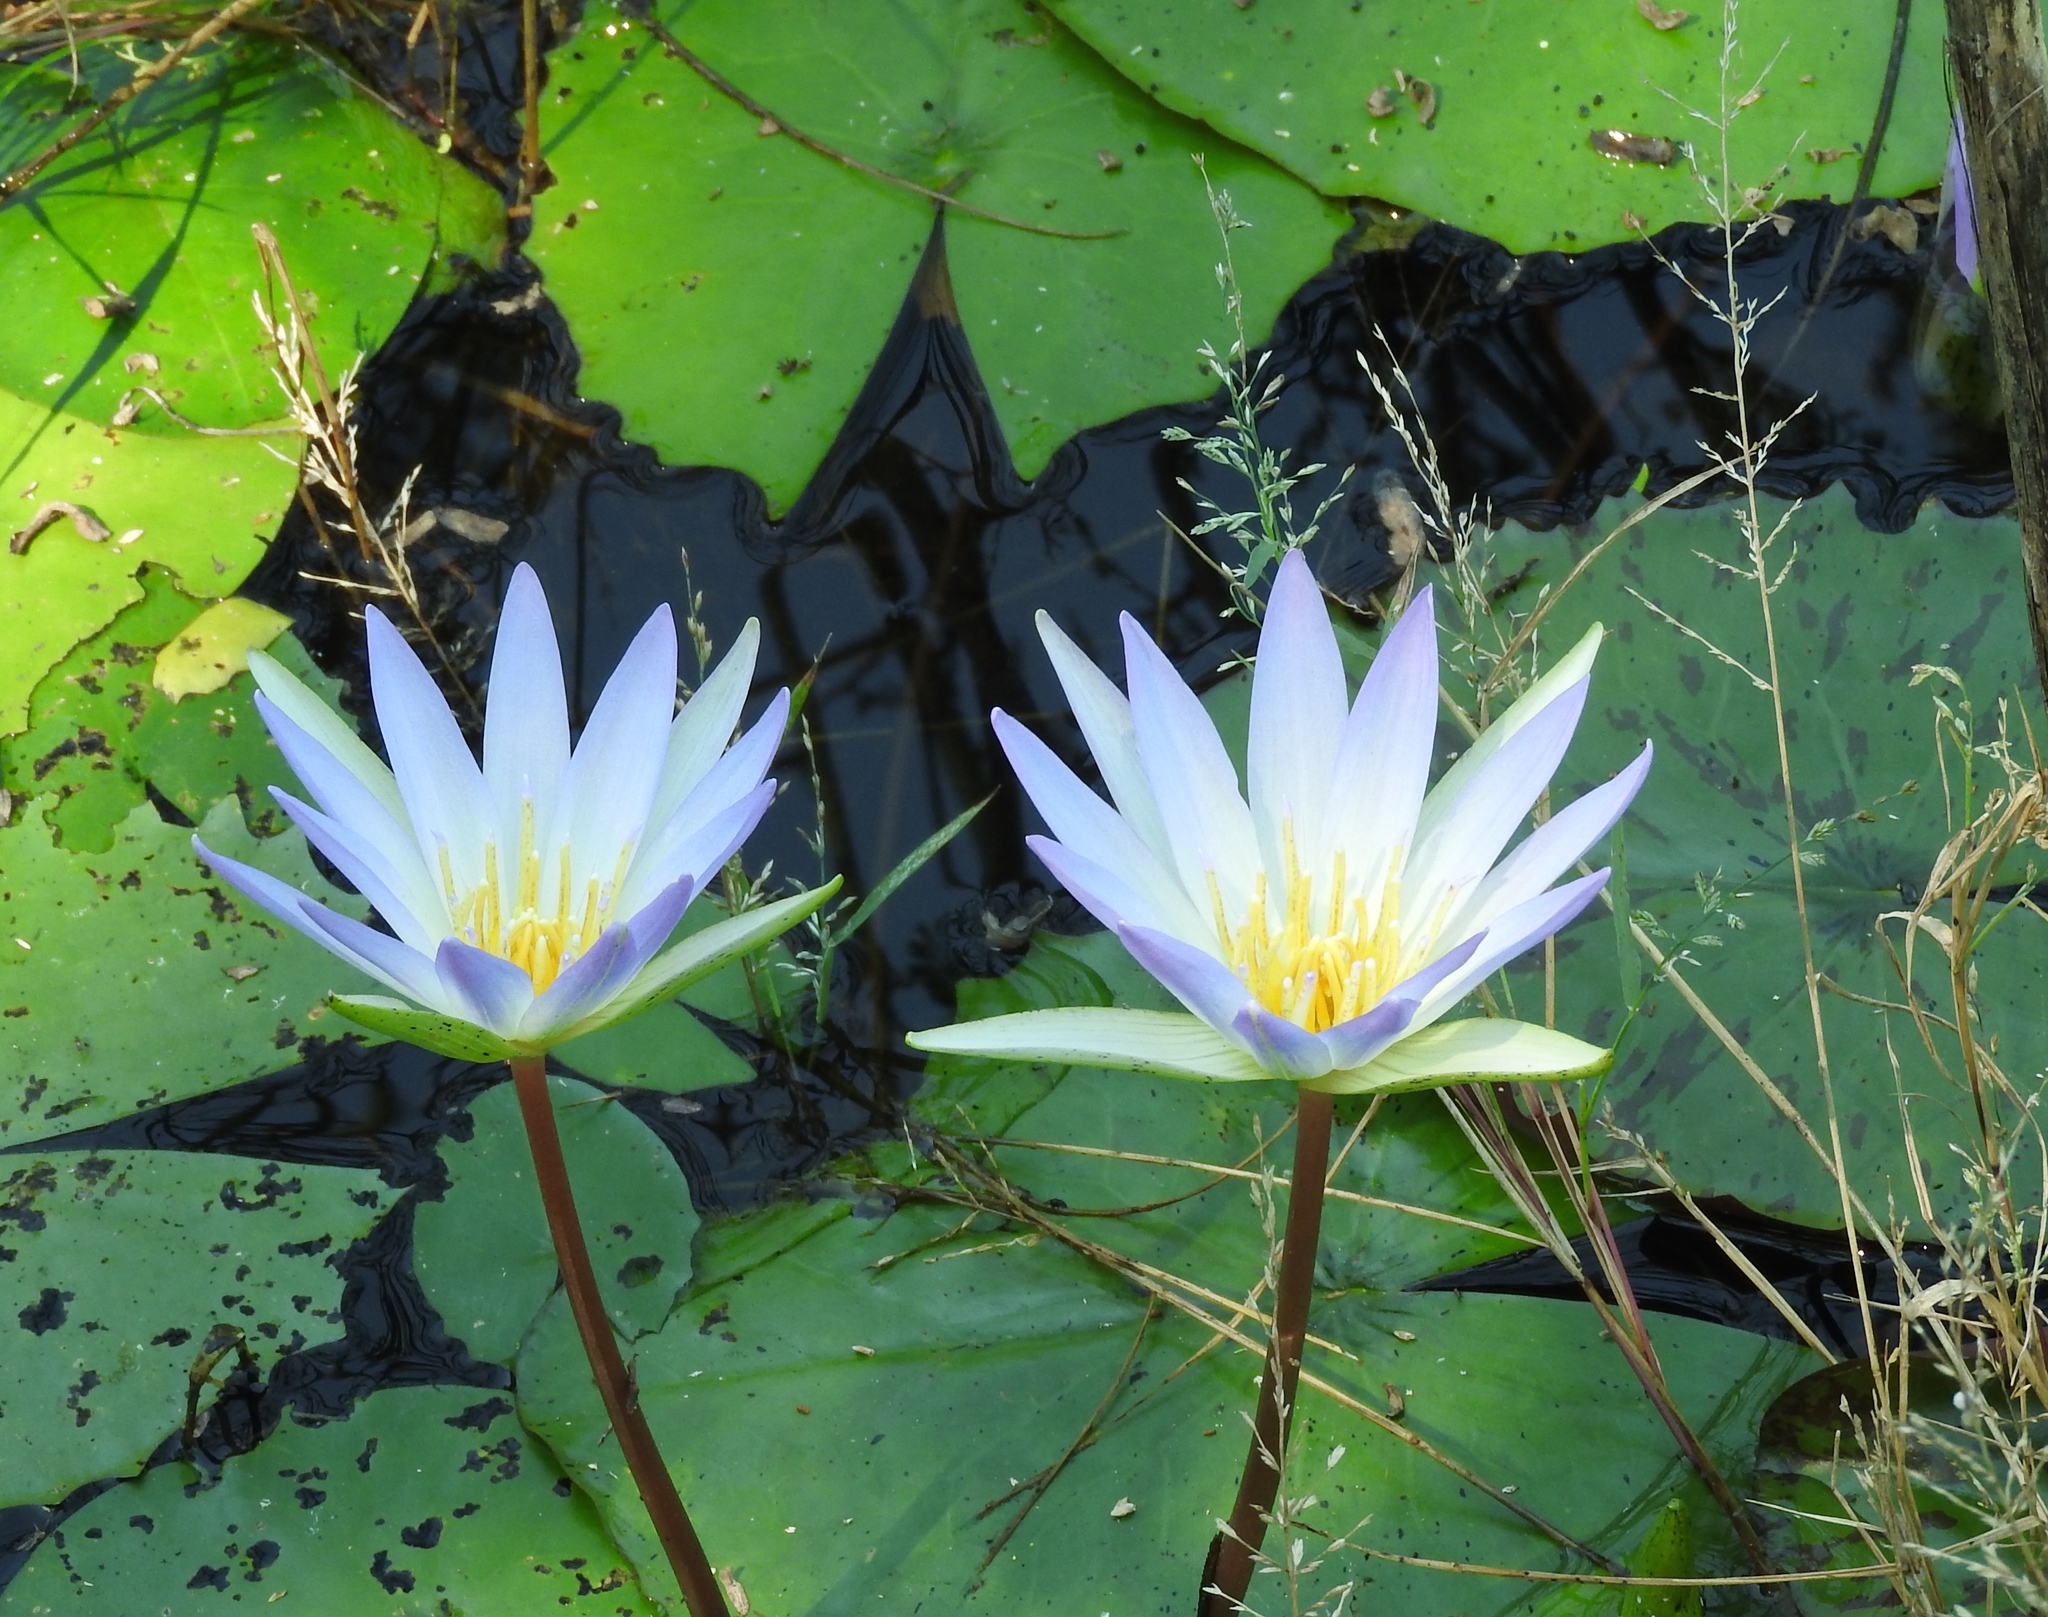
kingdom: Plantae
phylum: Tracheophyta
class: Magnoliopsida
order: Nymphaeales
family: Nymphaeaceae
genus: Nymphaea
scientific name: Nymphaea elegans
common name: Blue water-lily
